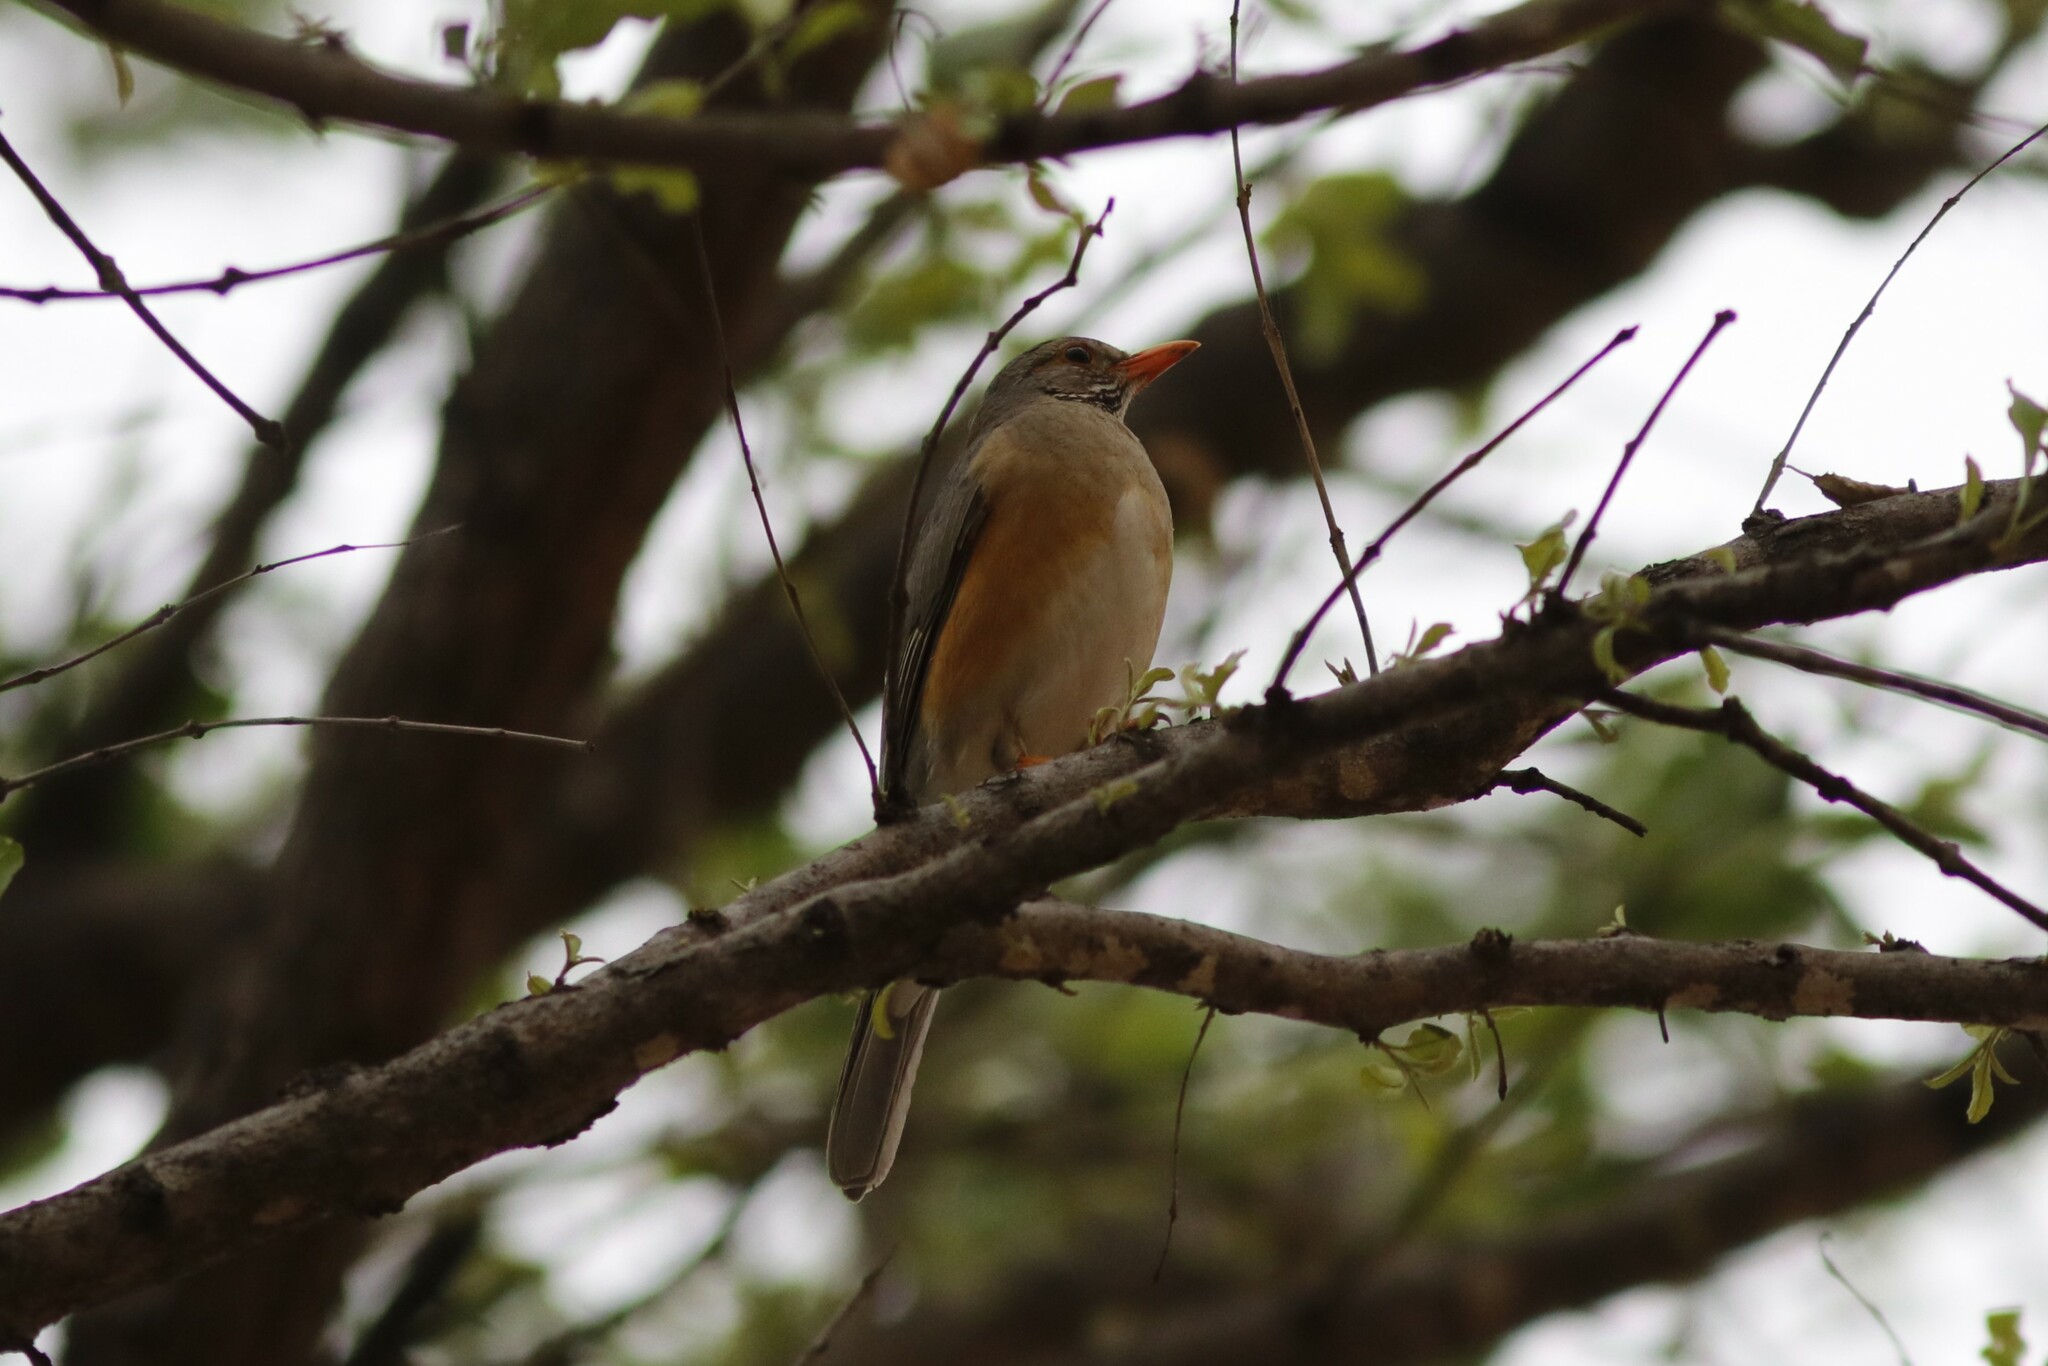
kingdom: Animalia
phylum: Chordata
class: Aves
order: Passeriformes
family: Turdidae
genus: Turdus
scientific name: Turdus libonyana
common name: Kurrichane thrush
